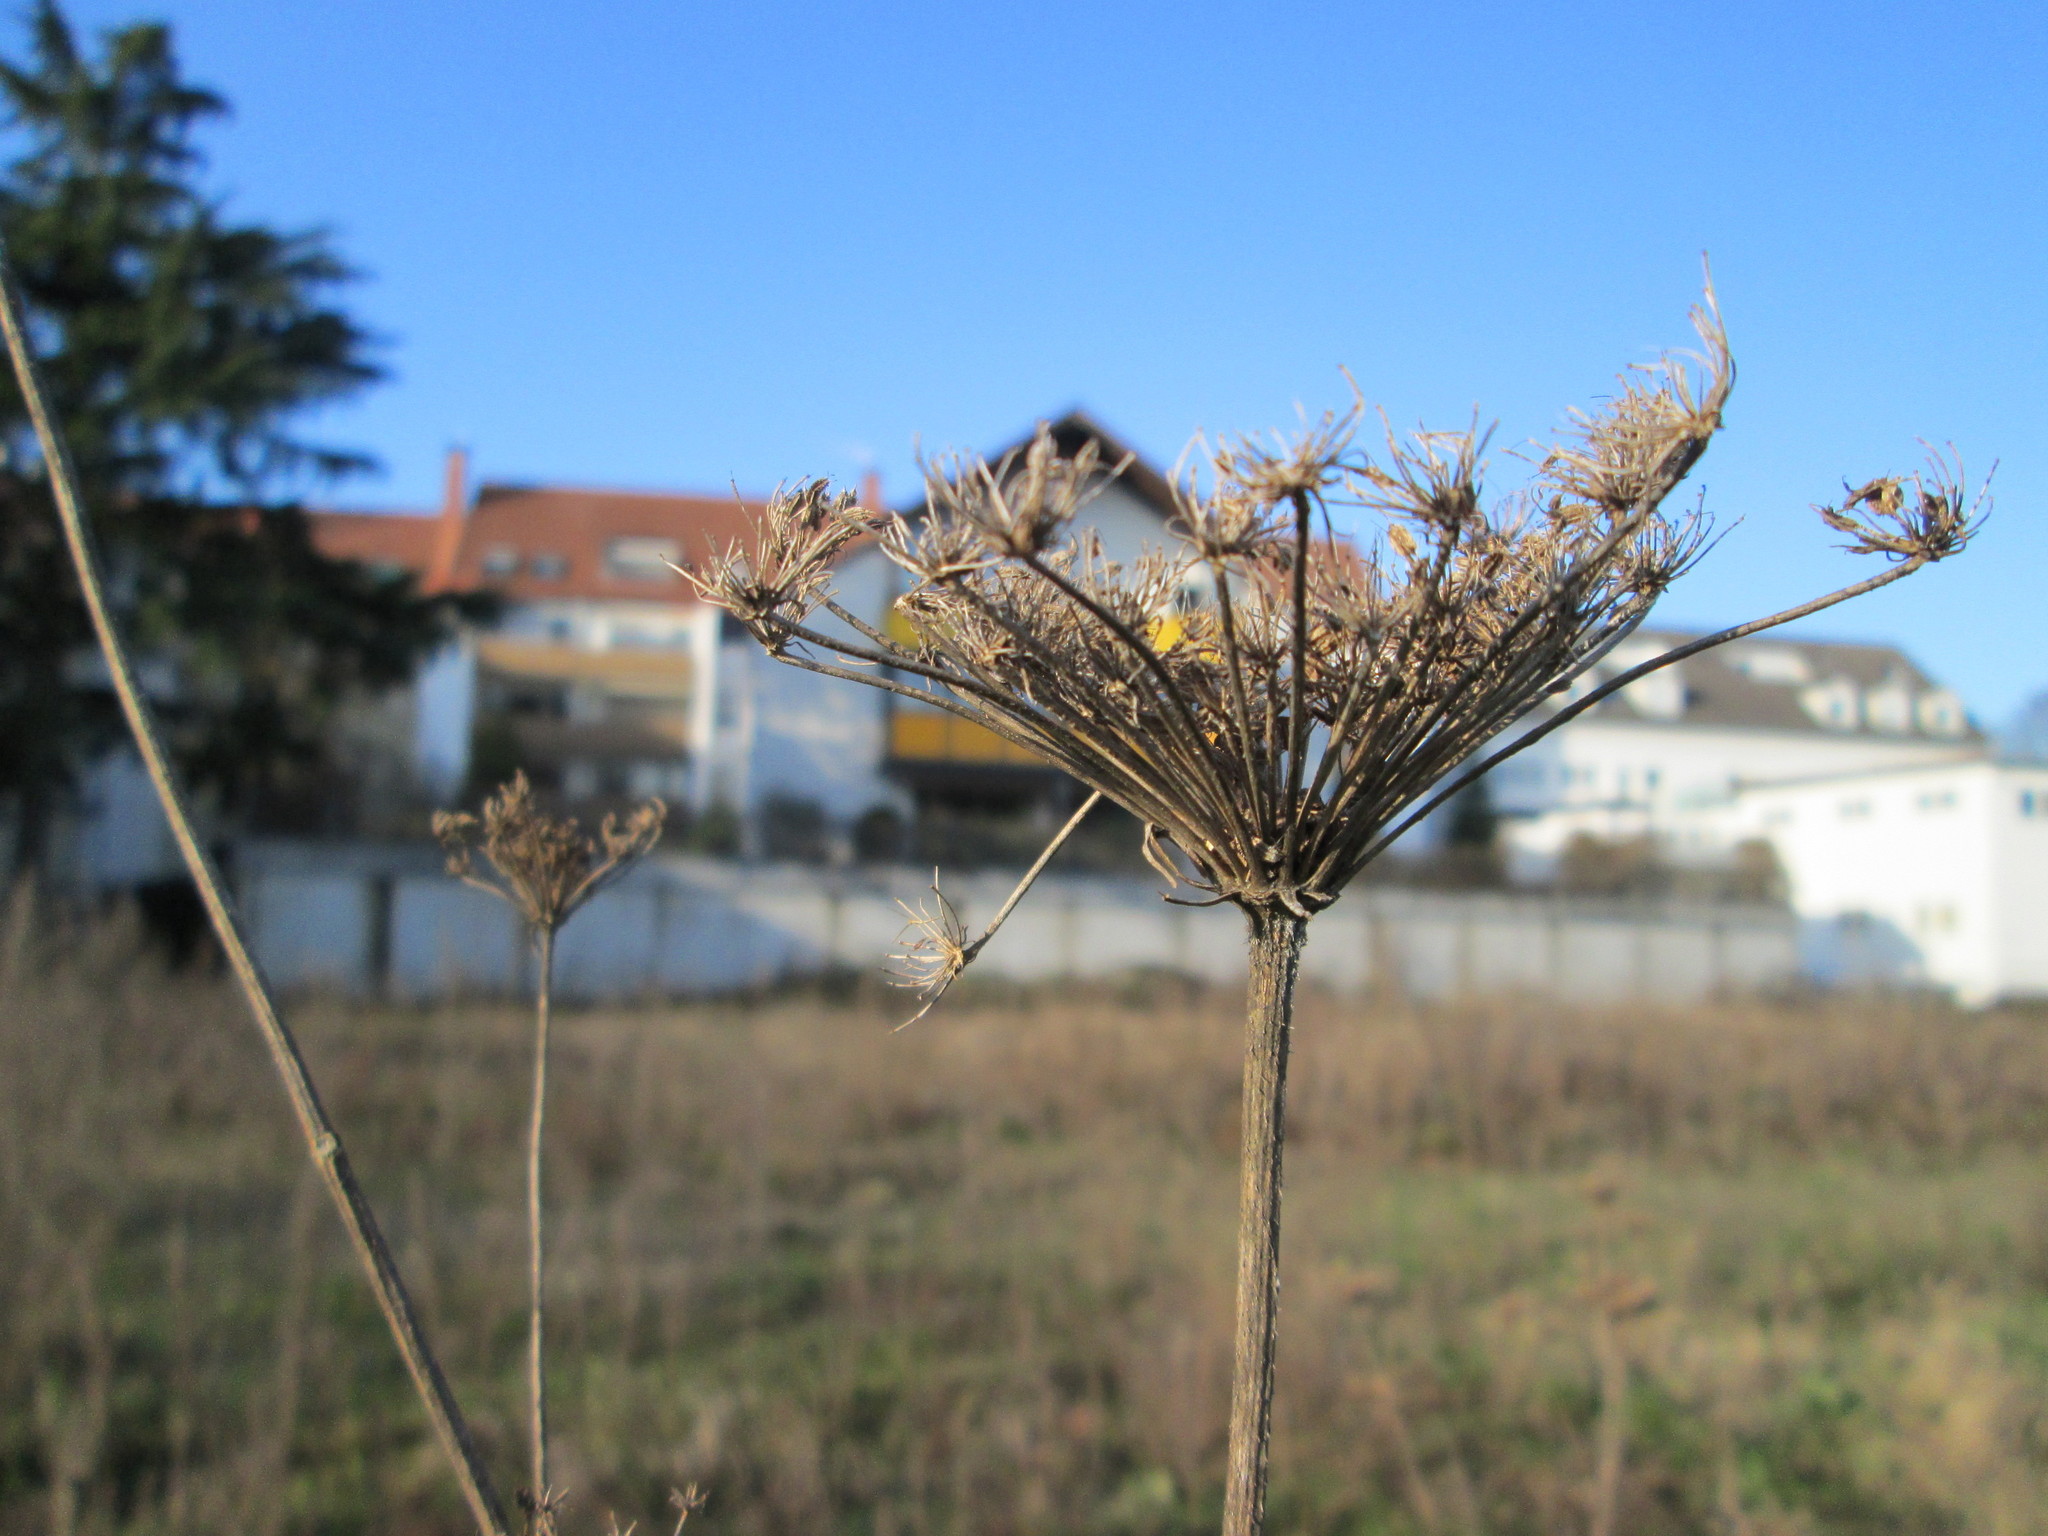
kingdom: Plantae
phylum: Tracheophyta
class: Magnoliopsida
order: Apiales
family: Apiaceae
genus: Daucus
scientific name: Daucus carota
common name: Wild carrot
